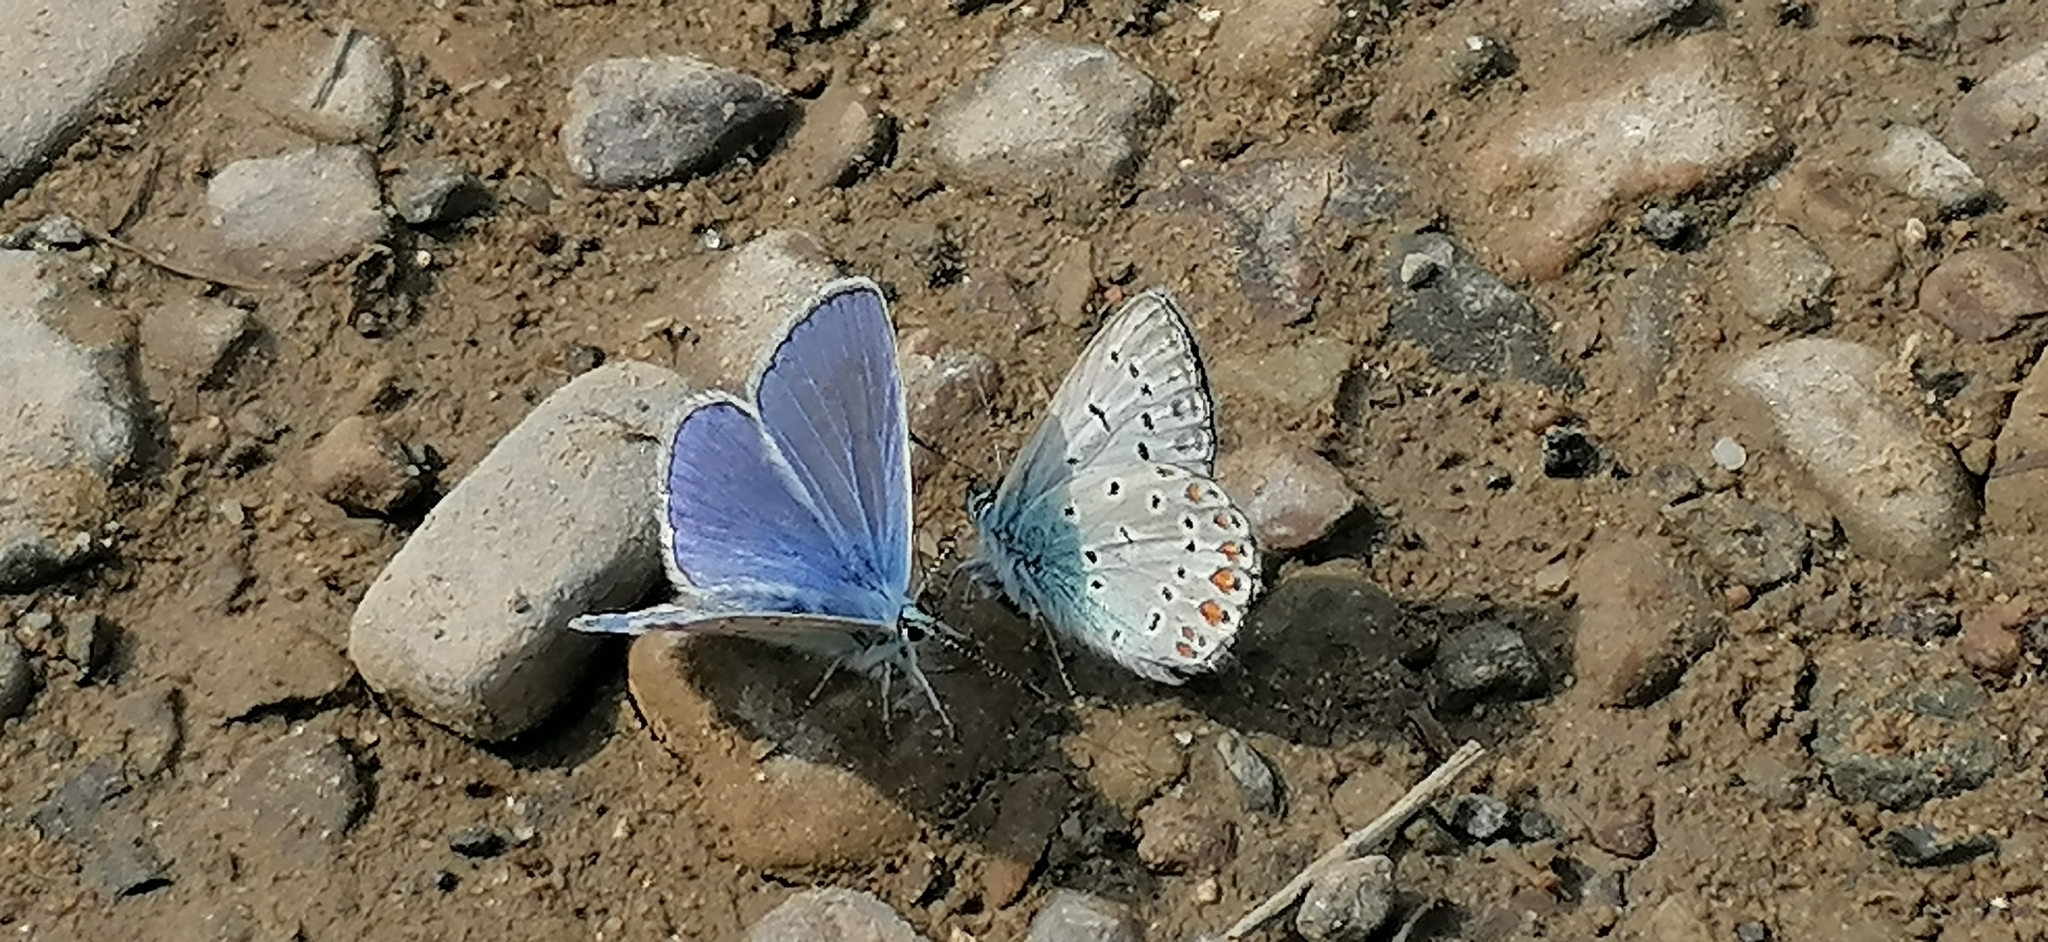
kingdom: Animalia
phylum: Arthropoda
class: Insecta
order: Lepidoptera
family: Lycaenidae
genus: Polyommatus
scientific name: Polyommatus icarus
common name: Common blue
